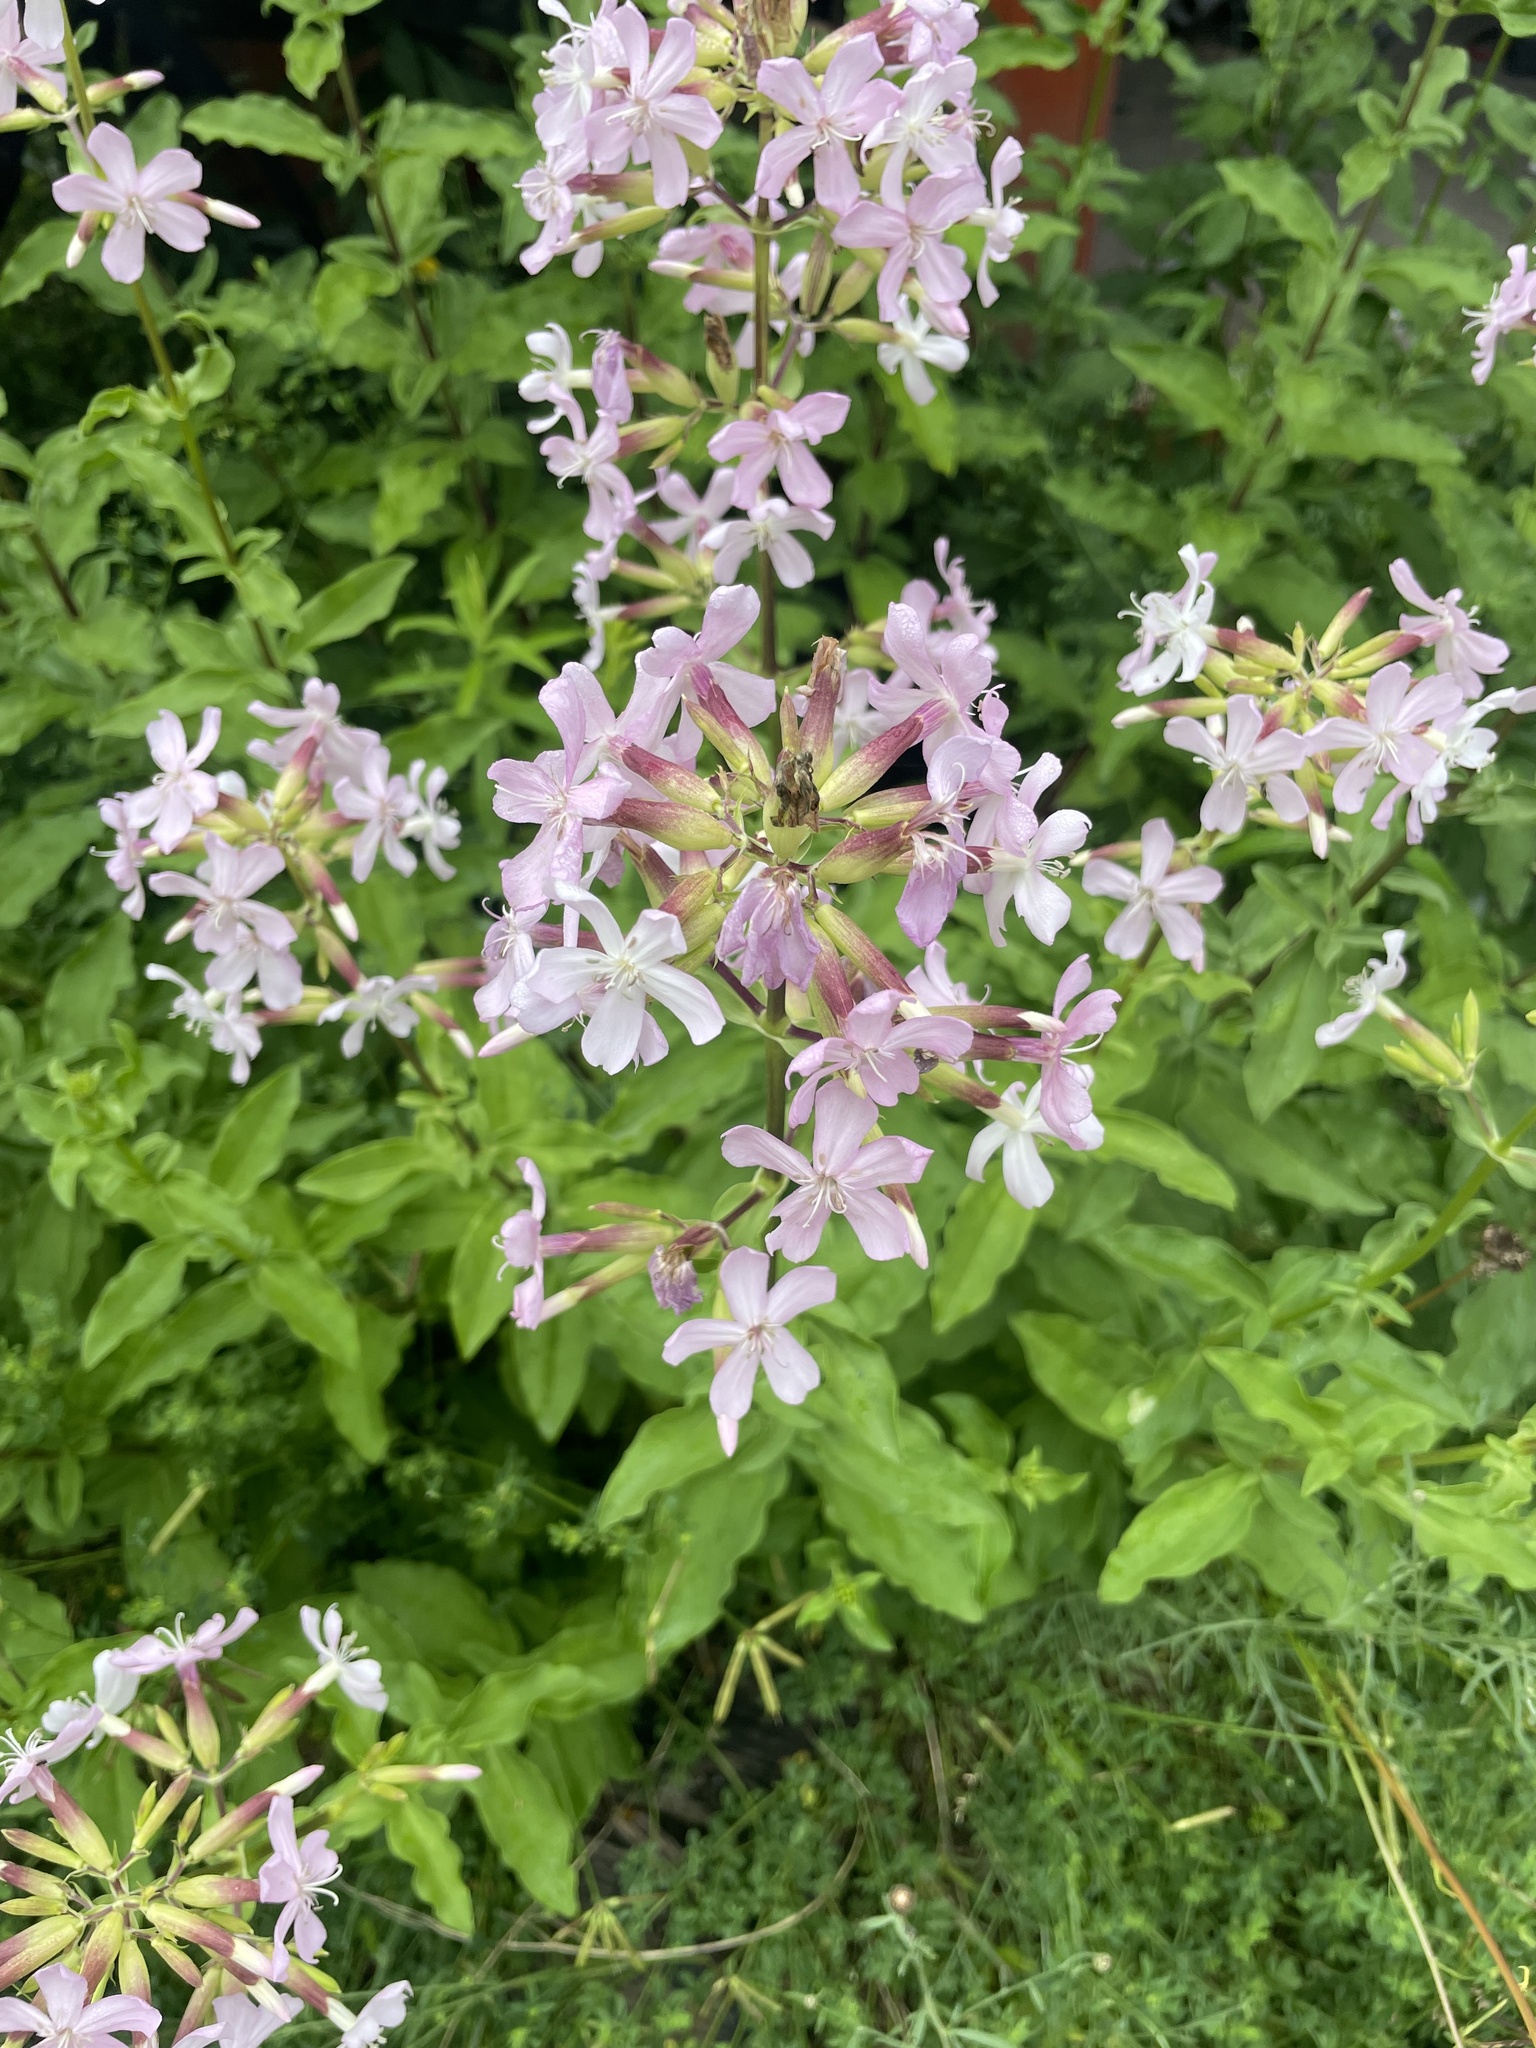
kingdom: Plantae
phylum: Tracheophyta
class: Magnoliopsida
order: Caryophyllales
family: Caryophyllaceae
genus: Saponaria
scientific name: Saponaria officinalis
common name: Soapwort
